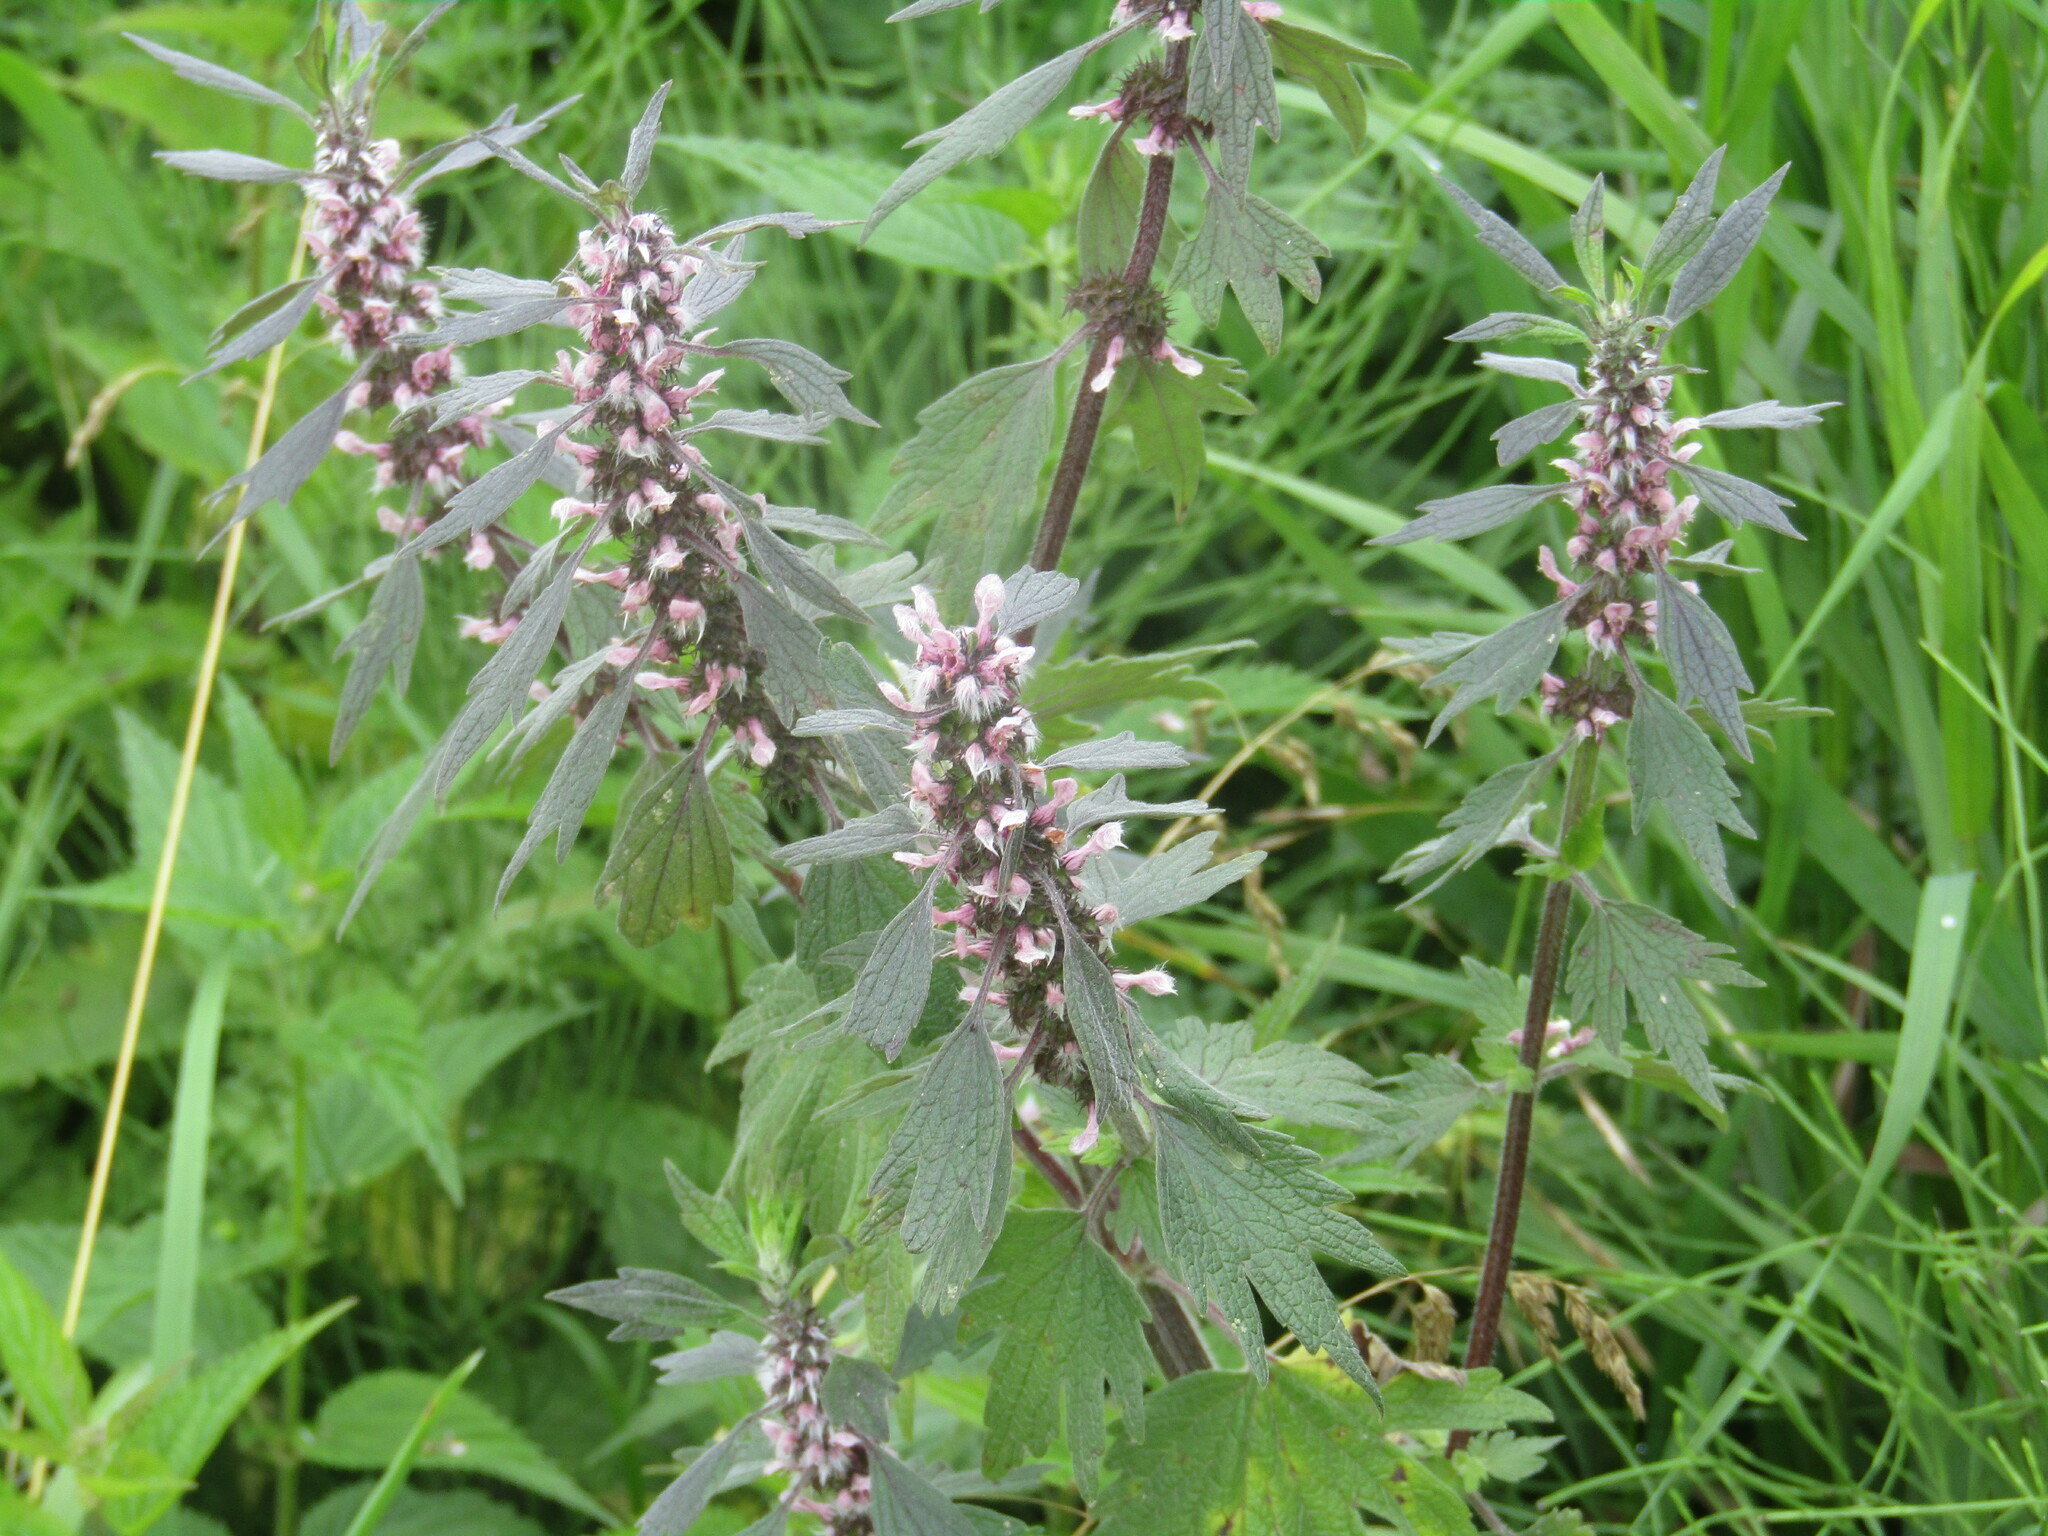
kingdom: Plantae
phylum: Tracheophyta
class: Magnoliopsida
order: Lamiales
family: Lamiaceae
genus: Leonurus
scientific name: Leonurus quinquelobatus
